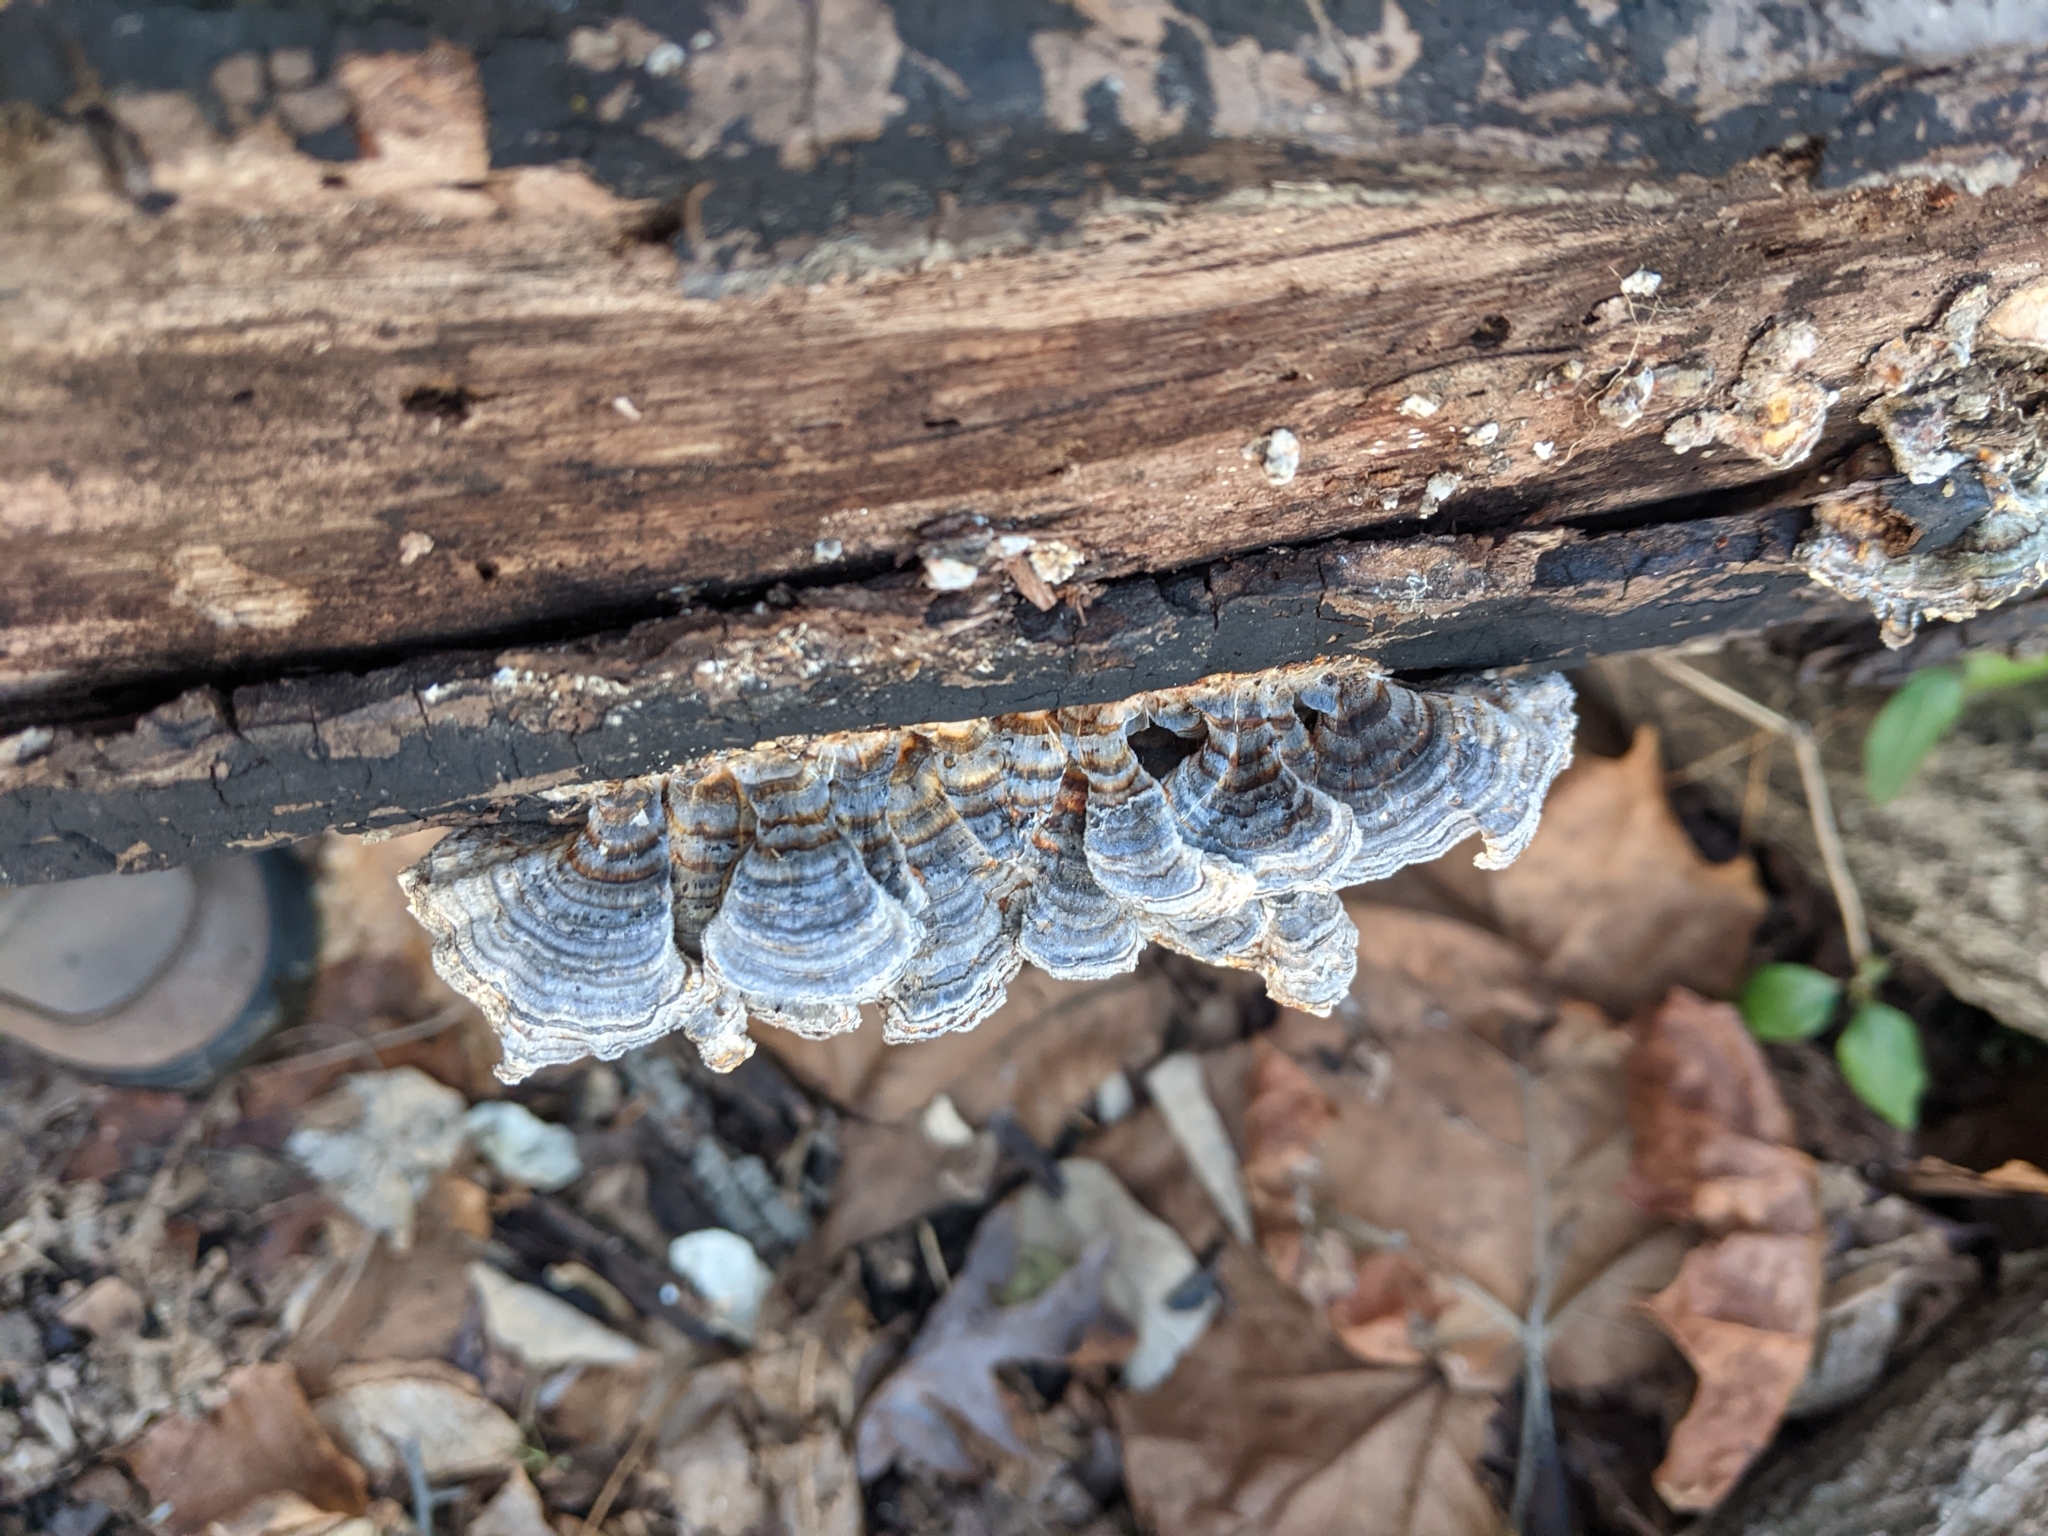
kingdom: Fungi
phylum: Basidiomycota
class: Agaricomycetes
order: Polyporales
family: Polyporaceae
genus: Trametes
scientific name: Trametes versicolor
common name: Turkeytail
